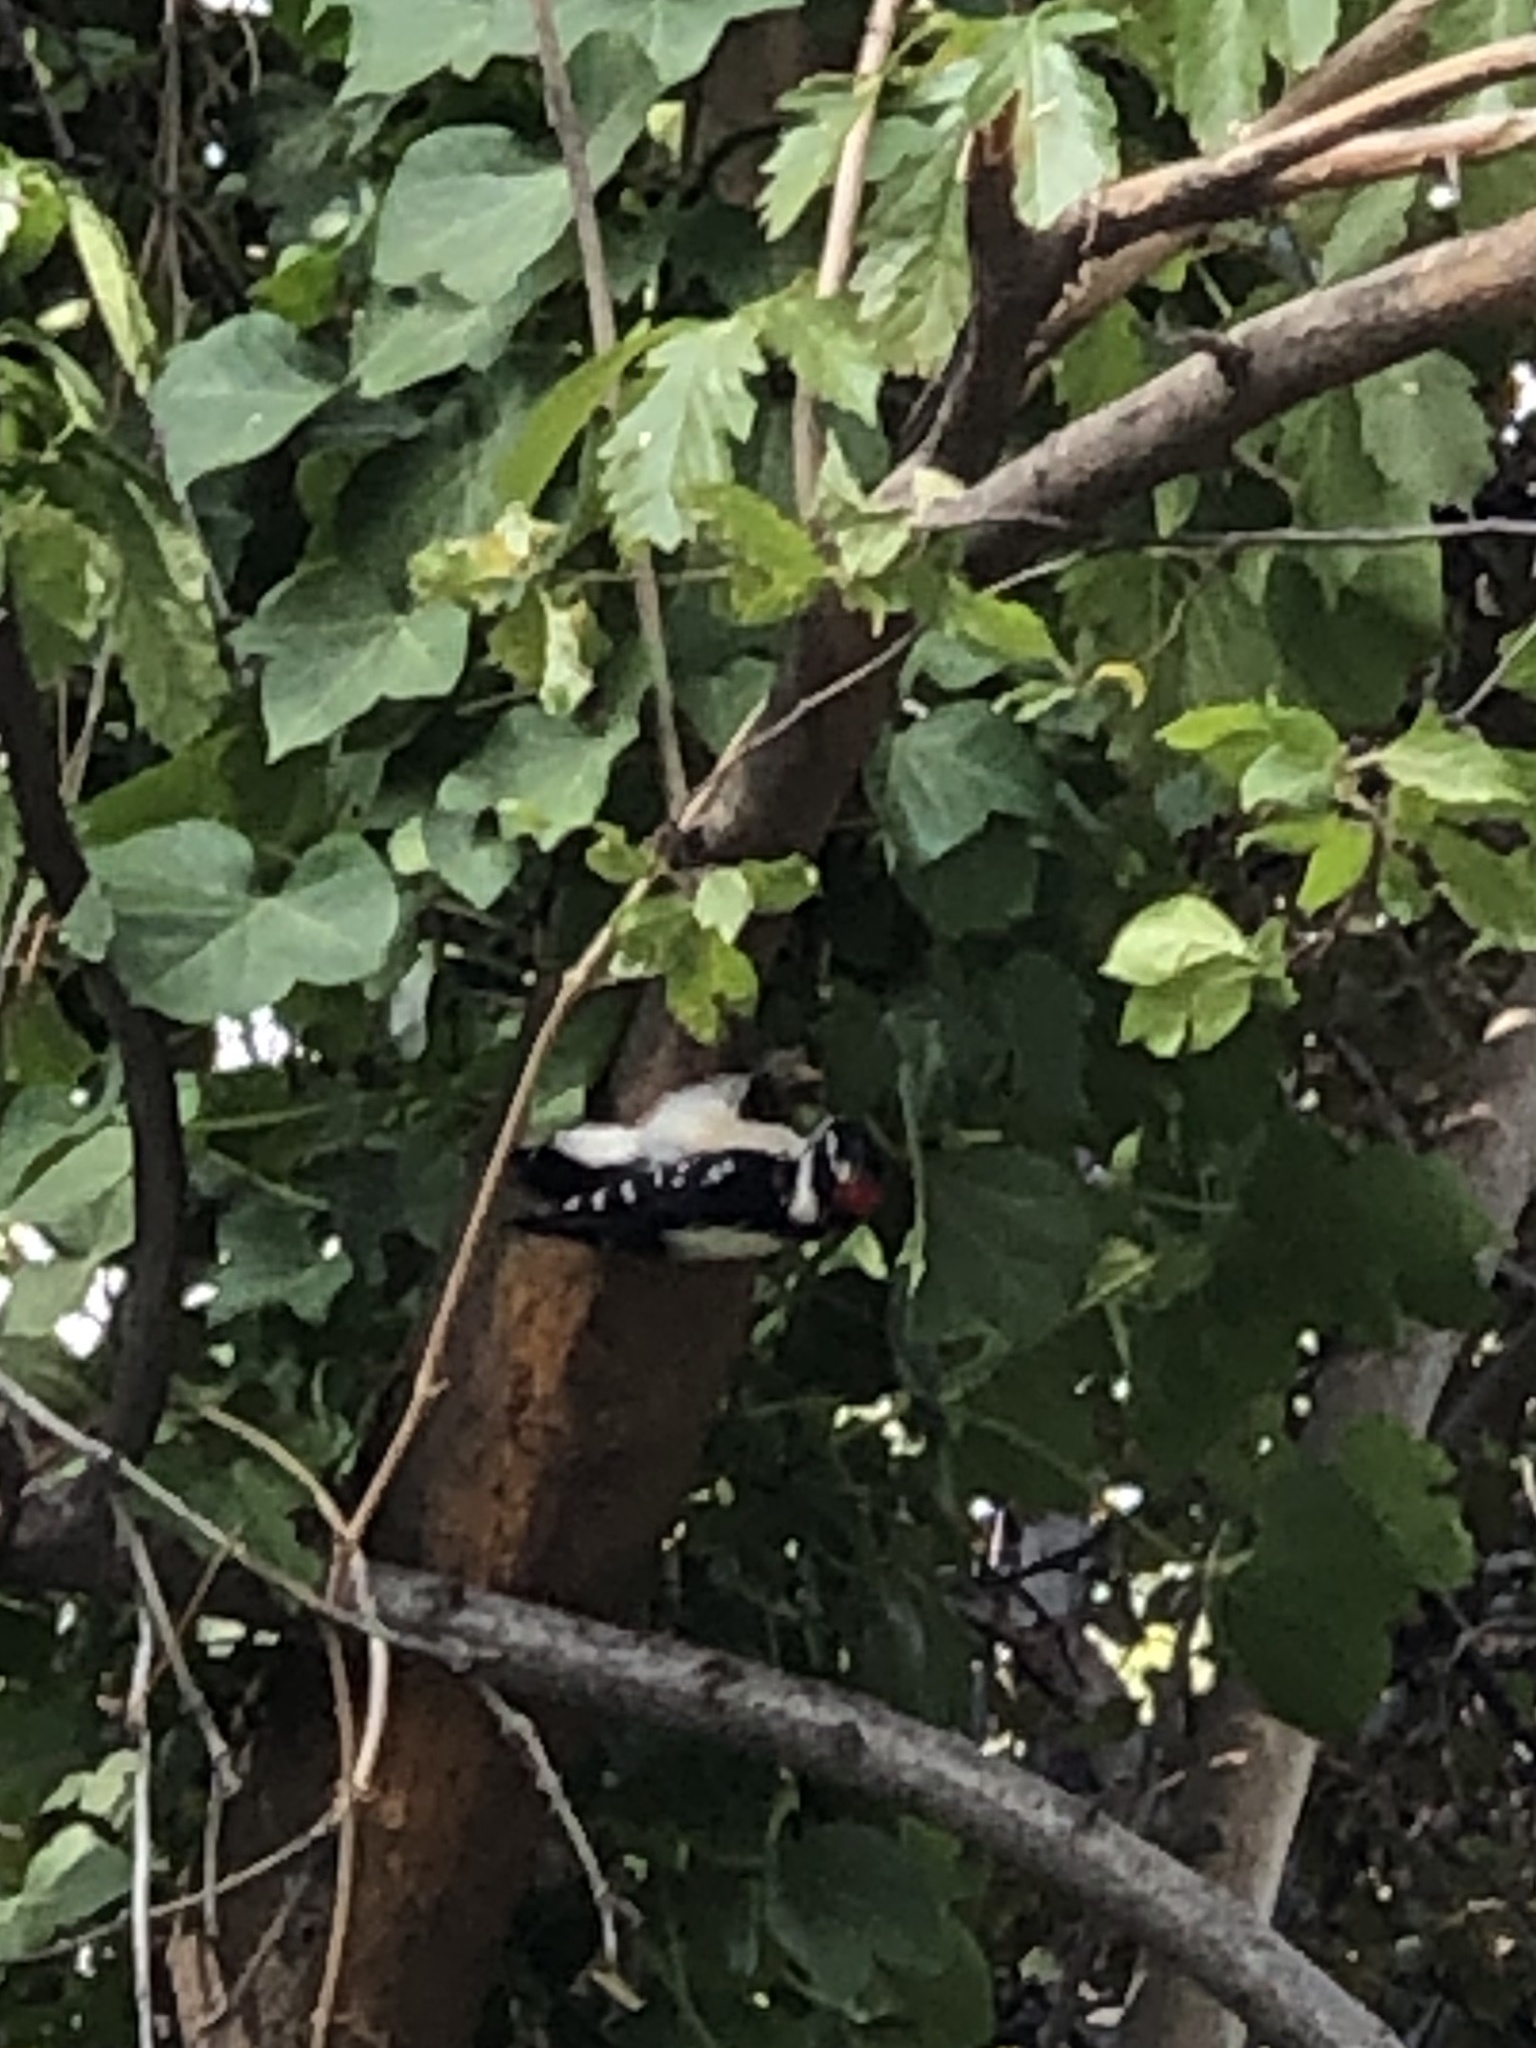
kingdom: Animalia
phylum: Chordata
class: Aves
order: Piciformes
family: Picidae
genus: Dryobates
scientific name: Dryobates pubescens
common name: Downy woodpecker
